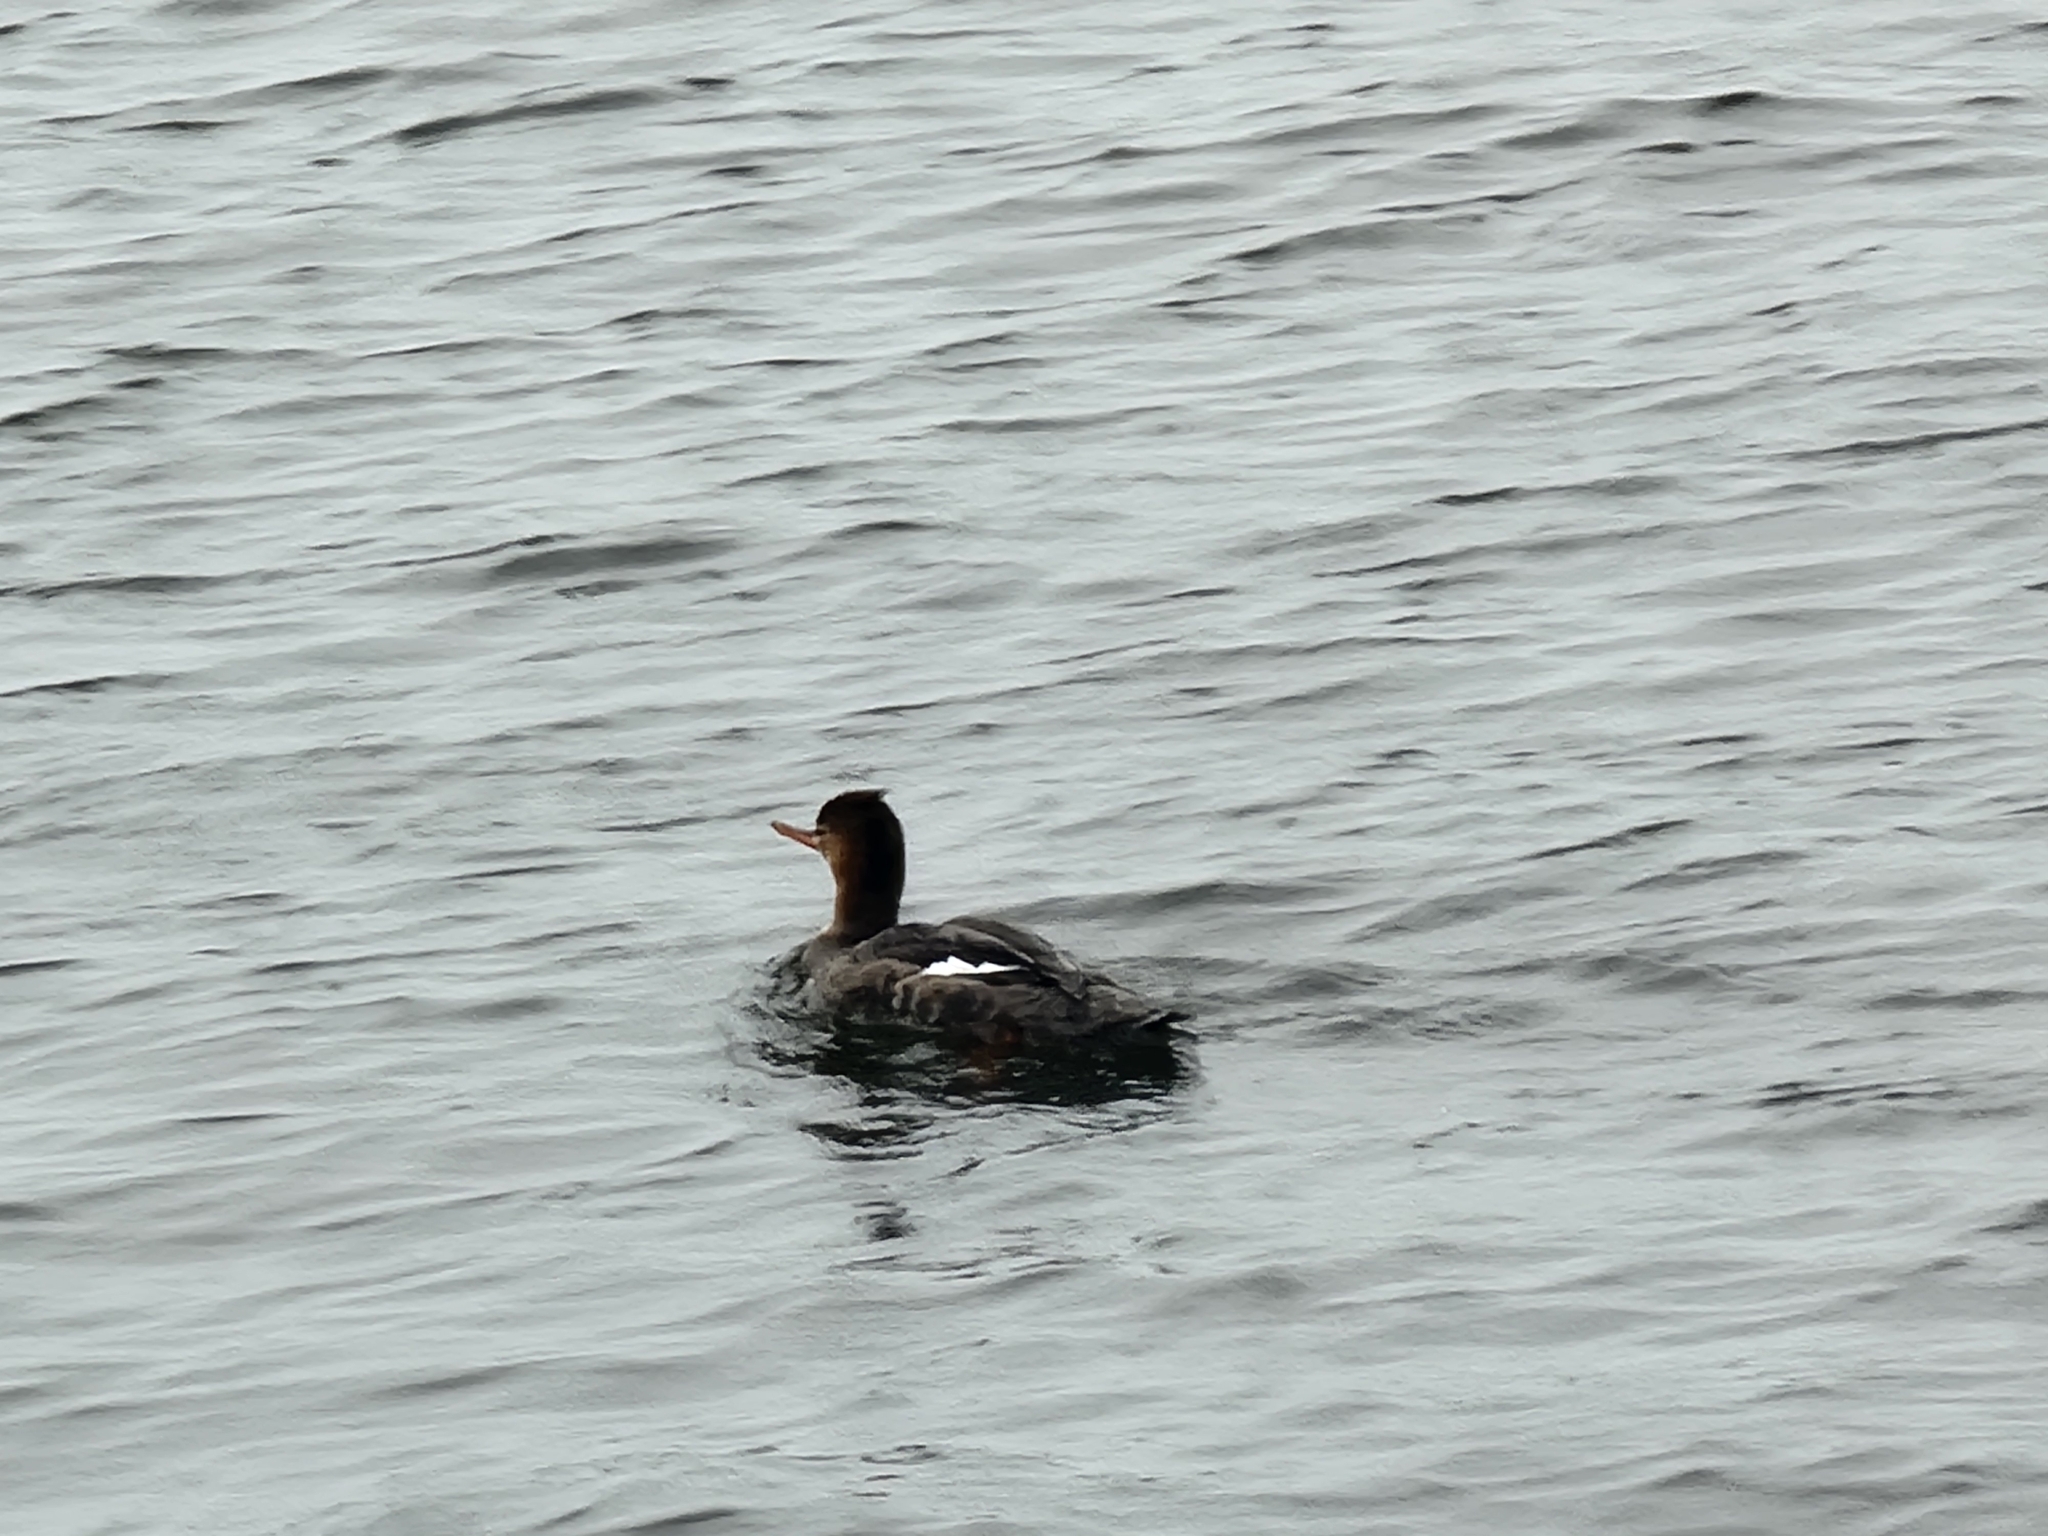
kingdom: Animalia
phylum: Chordata
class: Aves
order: Anseriformes
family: Anatidae
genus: Mergus
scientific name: Mergus serrator
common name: Red-breasted merganser
